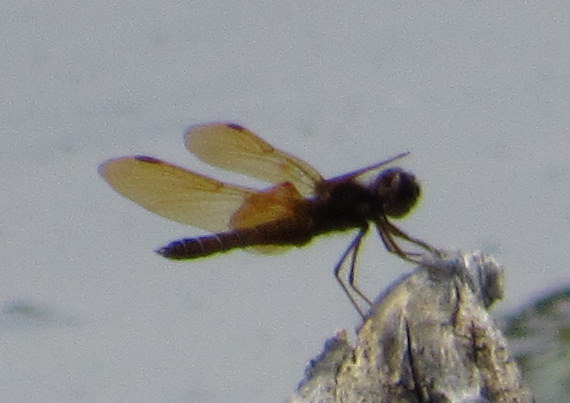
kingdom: Animalia
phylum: Arthropoda
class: Insecta
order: Odonata
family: Libellulidae
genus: Perithemis
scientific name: Perithemis tenera
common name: Eastern amberwing
